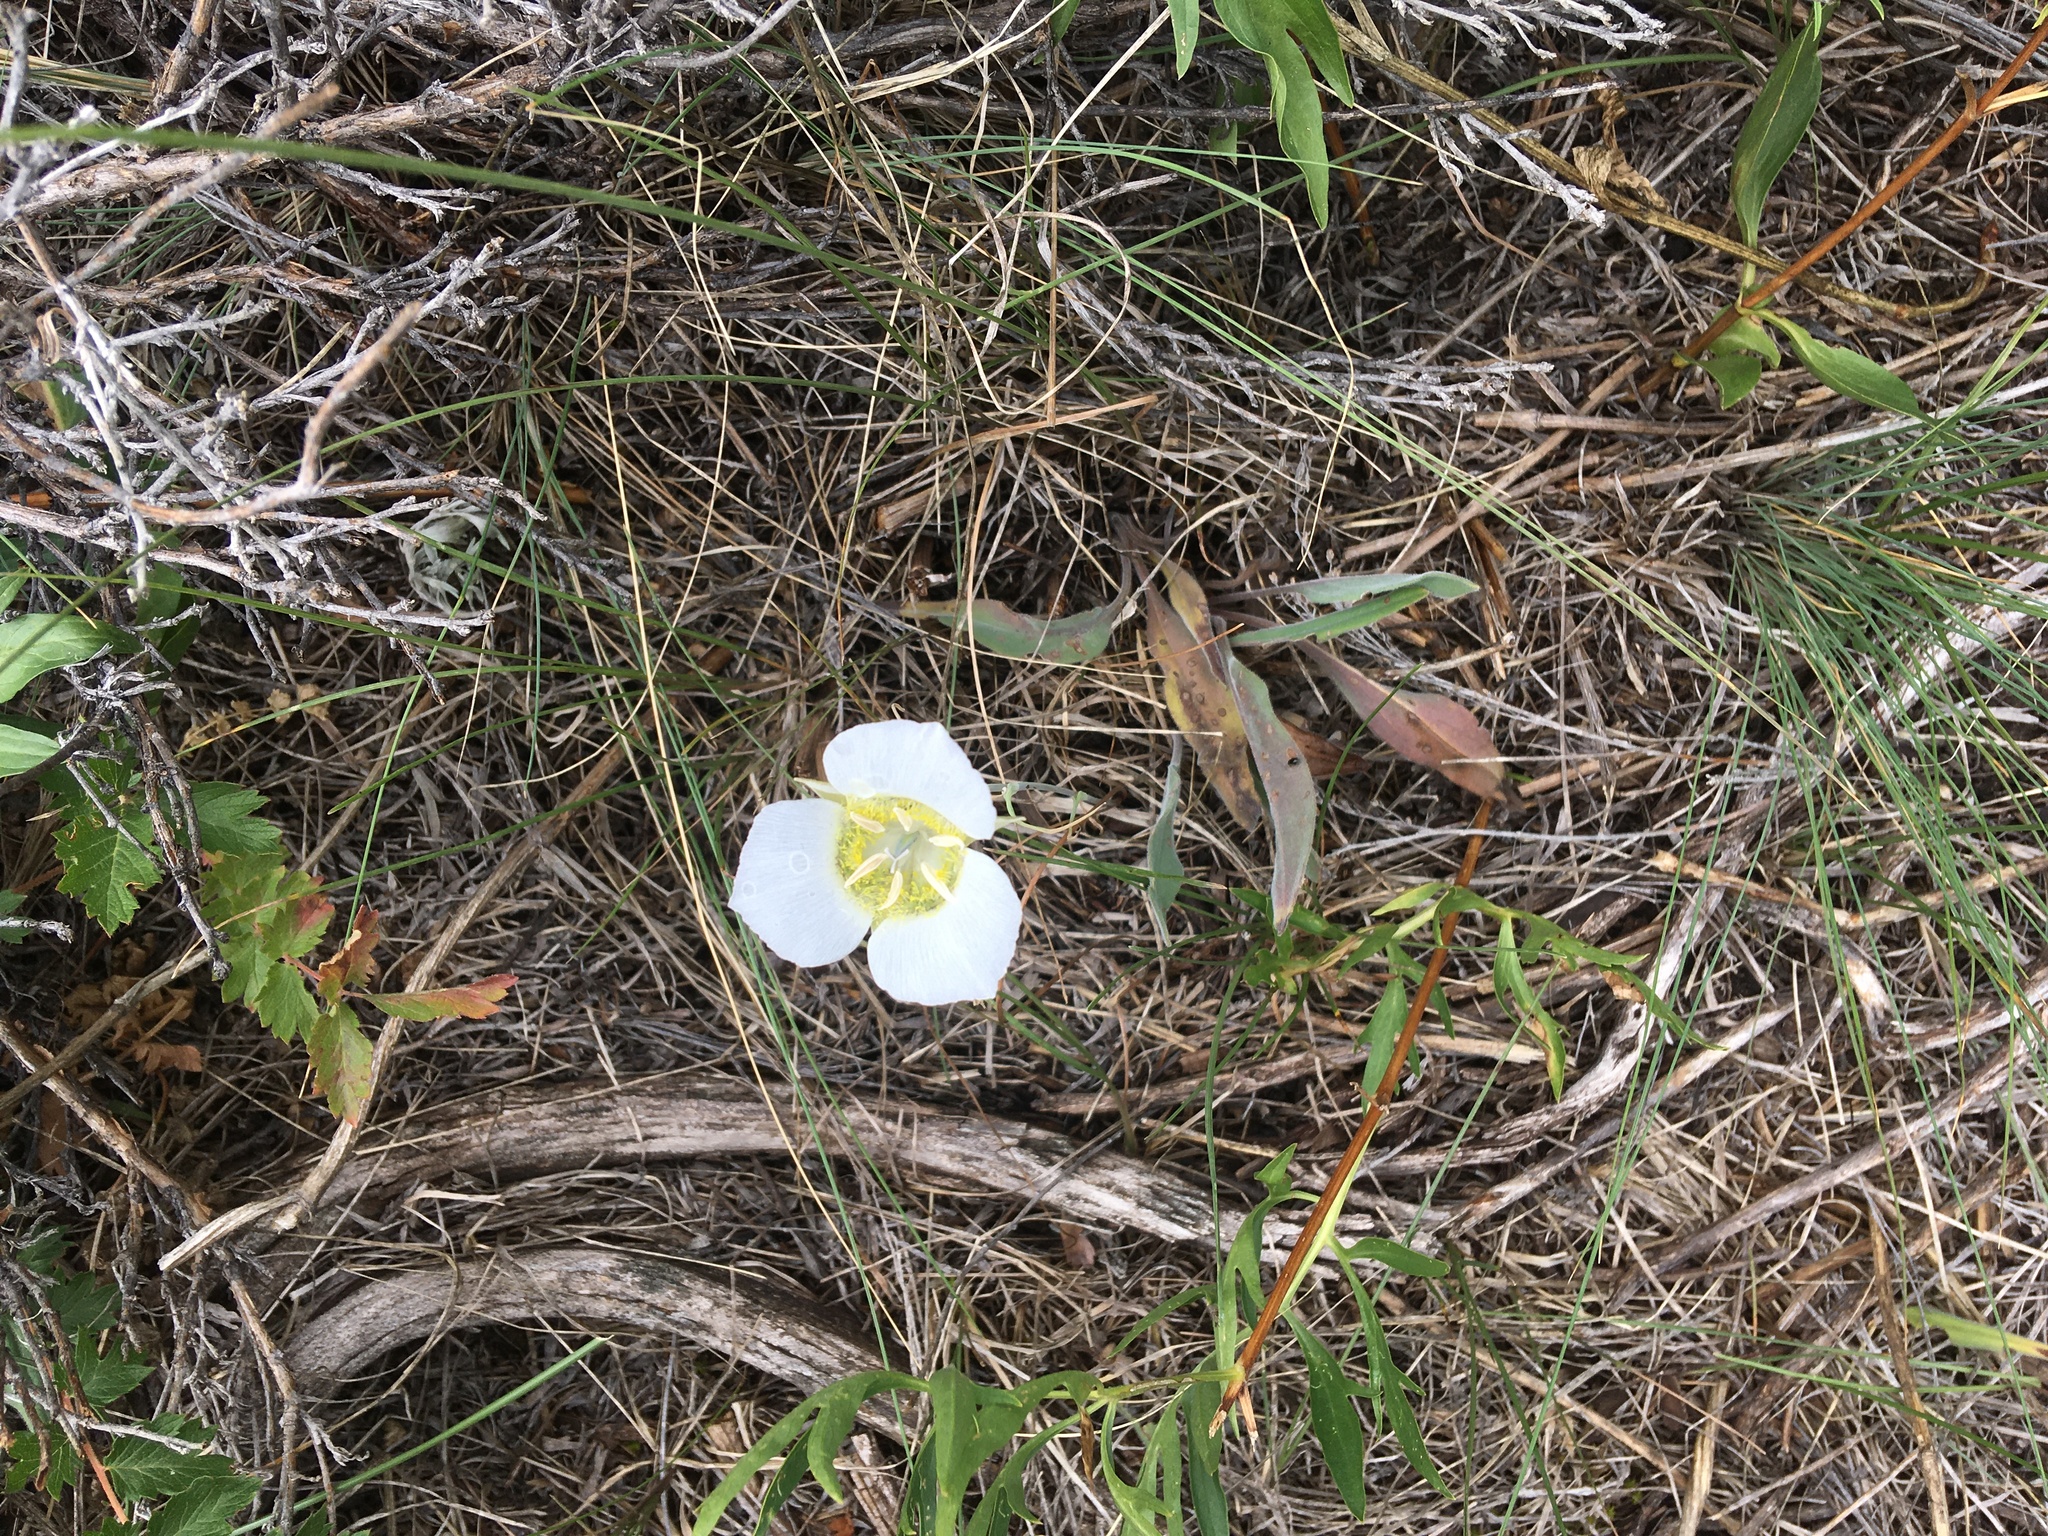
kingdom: Plantae
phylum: Tracheophyta
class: Liliopsida
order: Liliales
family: Liliaceae
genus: Calochortus
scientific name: Calochortus gunnisonii
